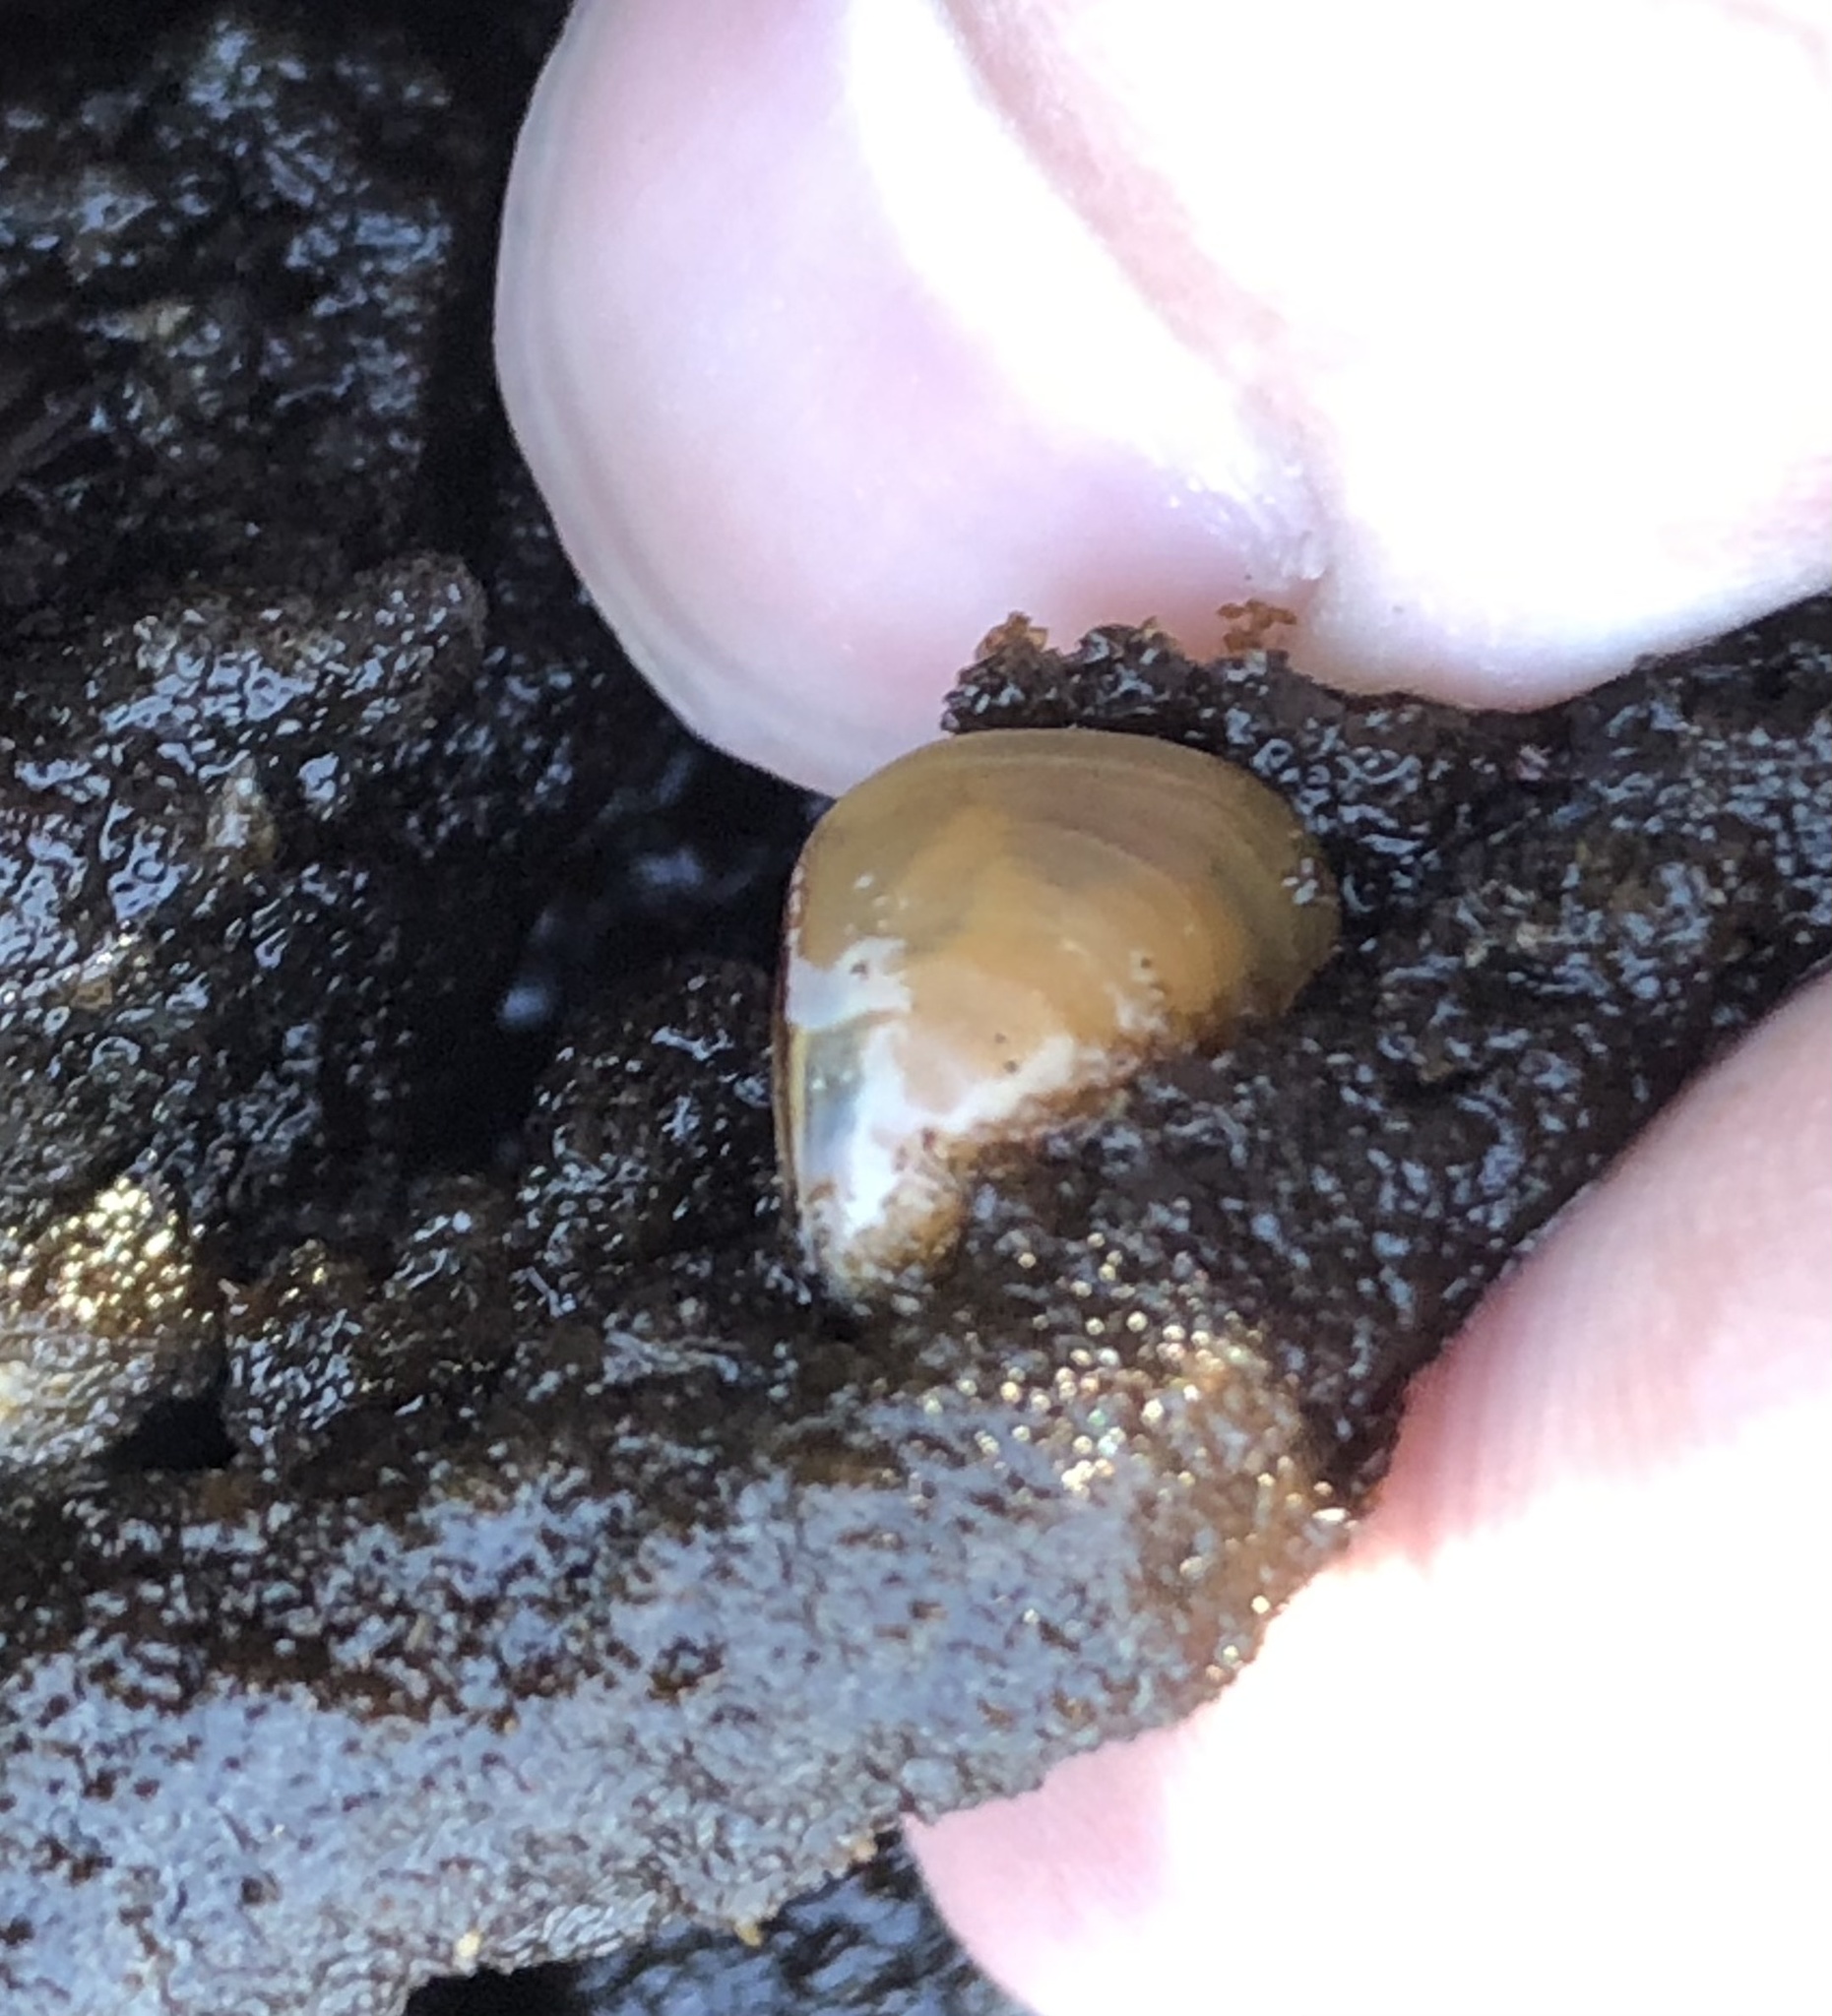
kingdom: Animalia
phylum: Mollusca
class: Bivalvia
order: Mytilida
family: Mytilidae
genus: Mytilus
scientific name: Mytilus trossulus
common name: Northern blue mussel
